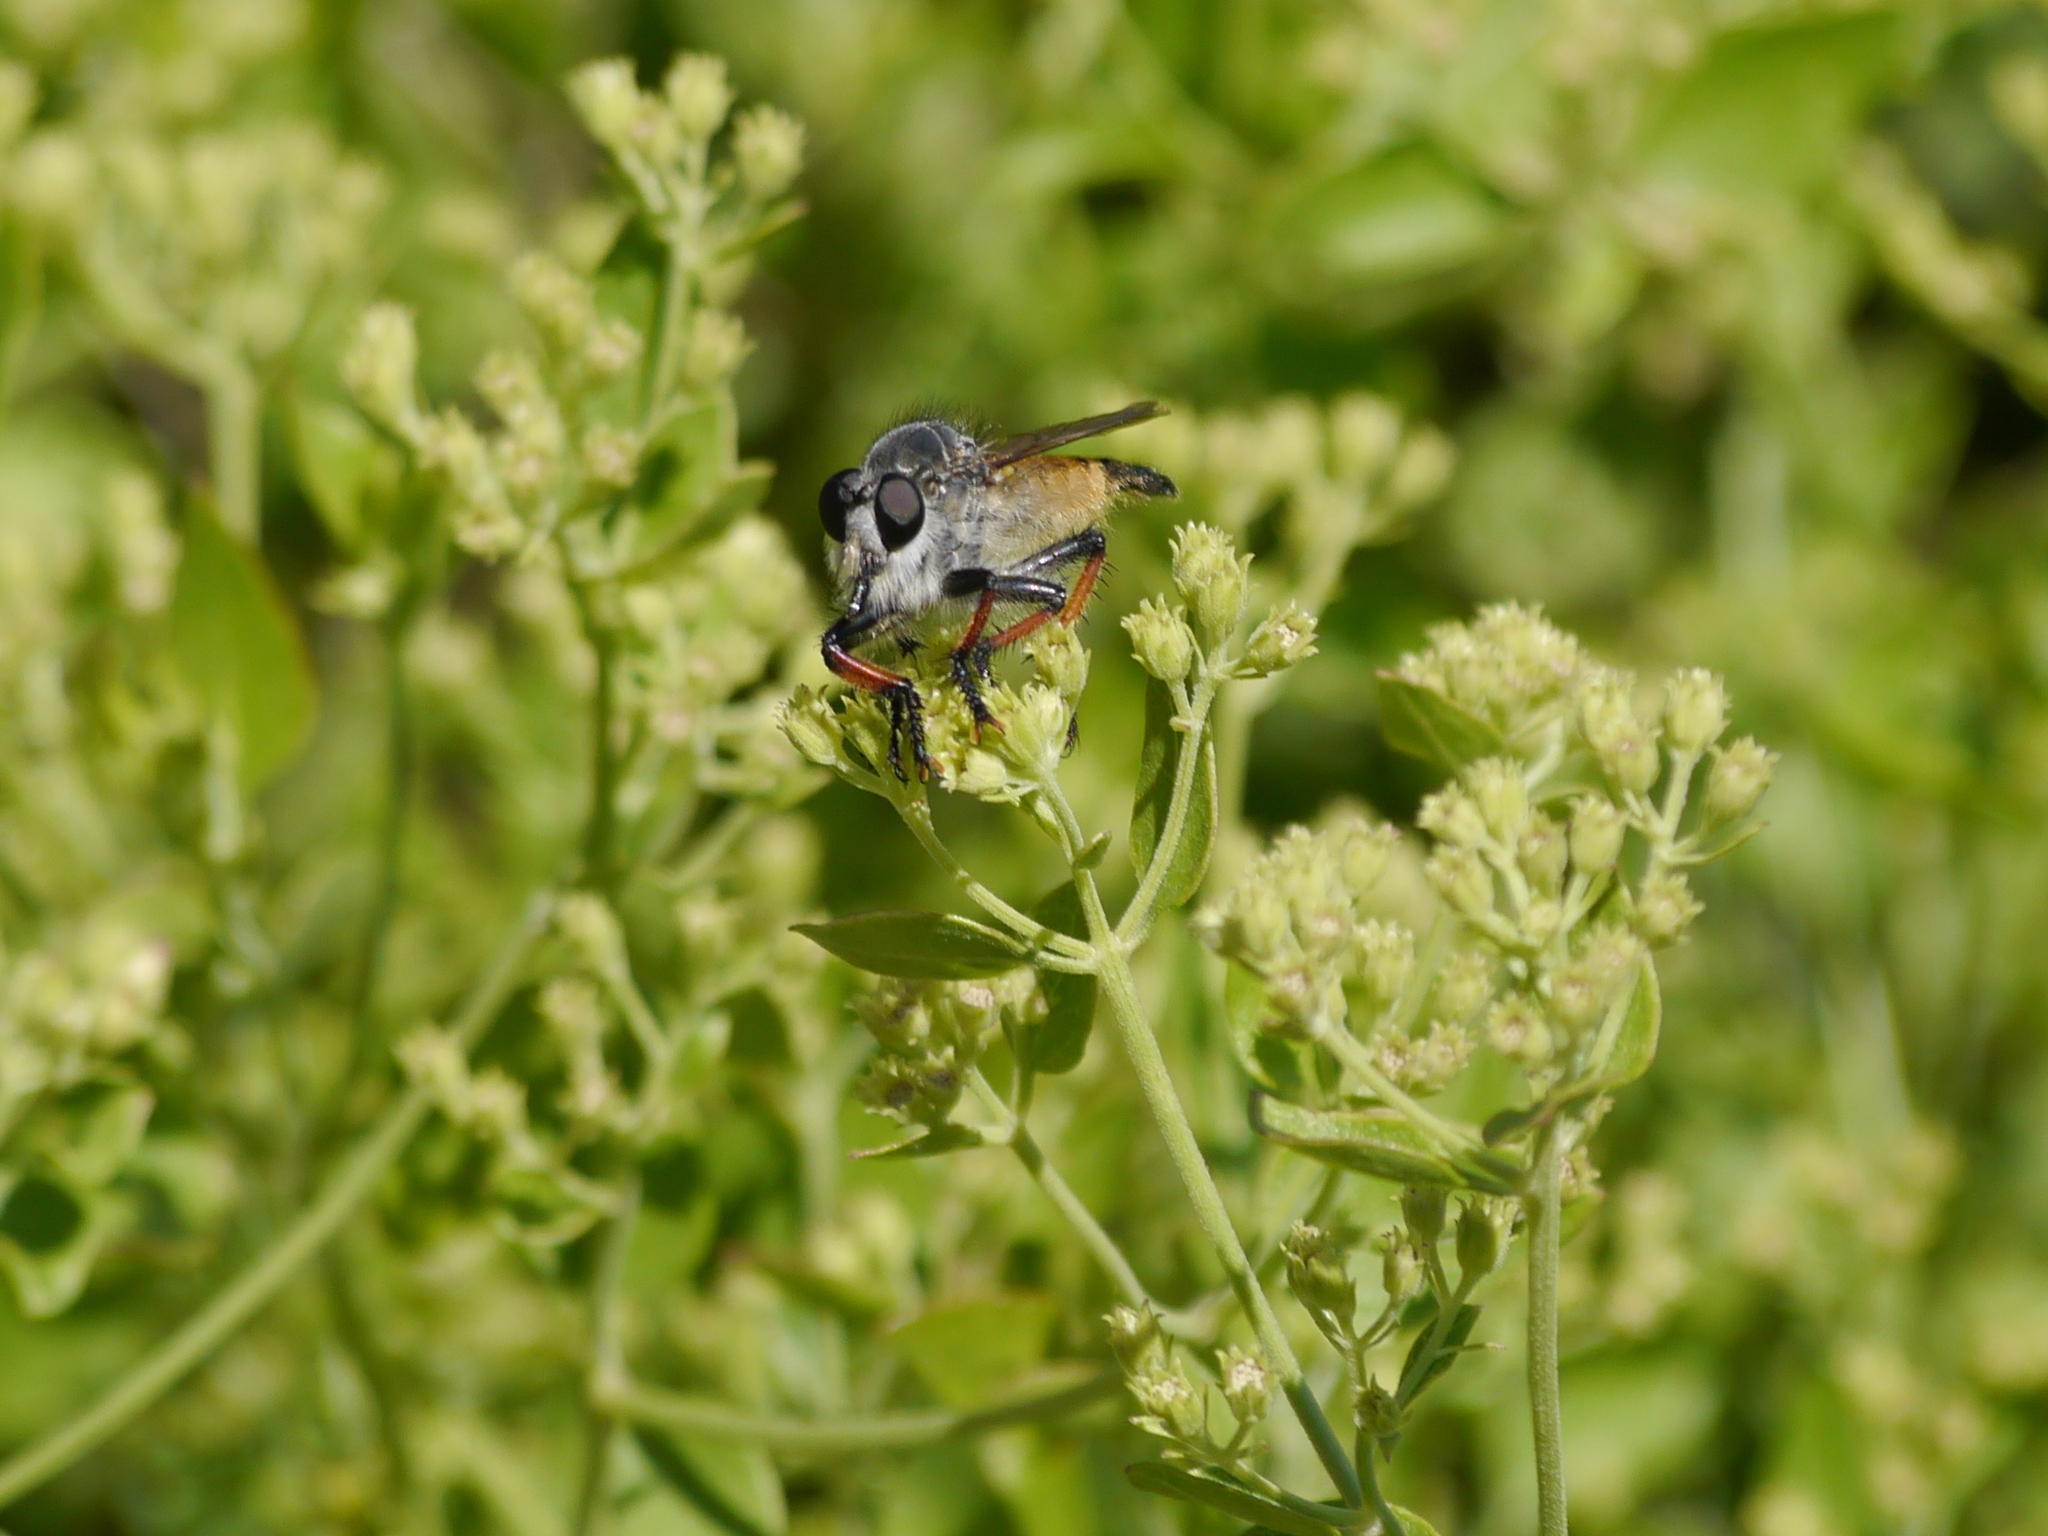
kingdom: Animalia
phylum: Arthropoda
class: Insecta
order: Diptera
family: Asilidae
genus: Promachus
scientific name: Promachus sackeni
